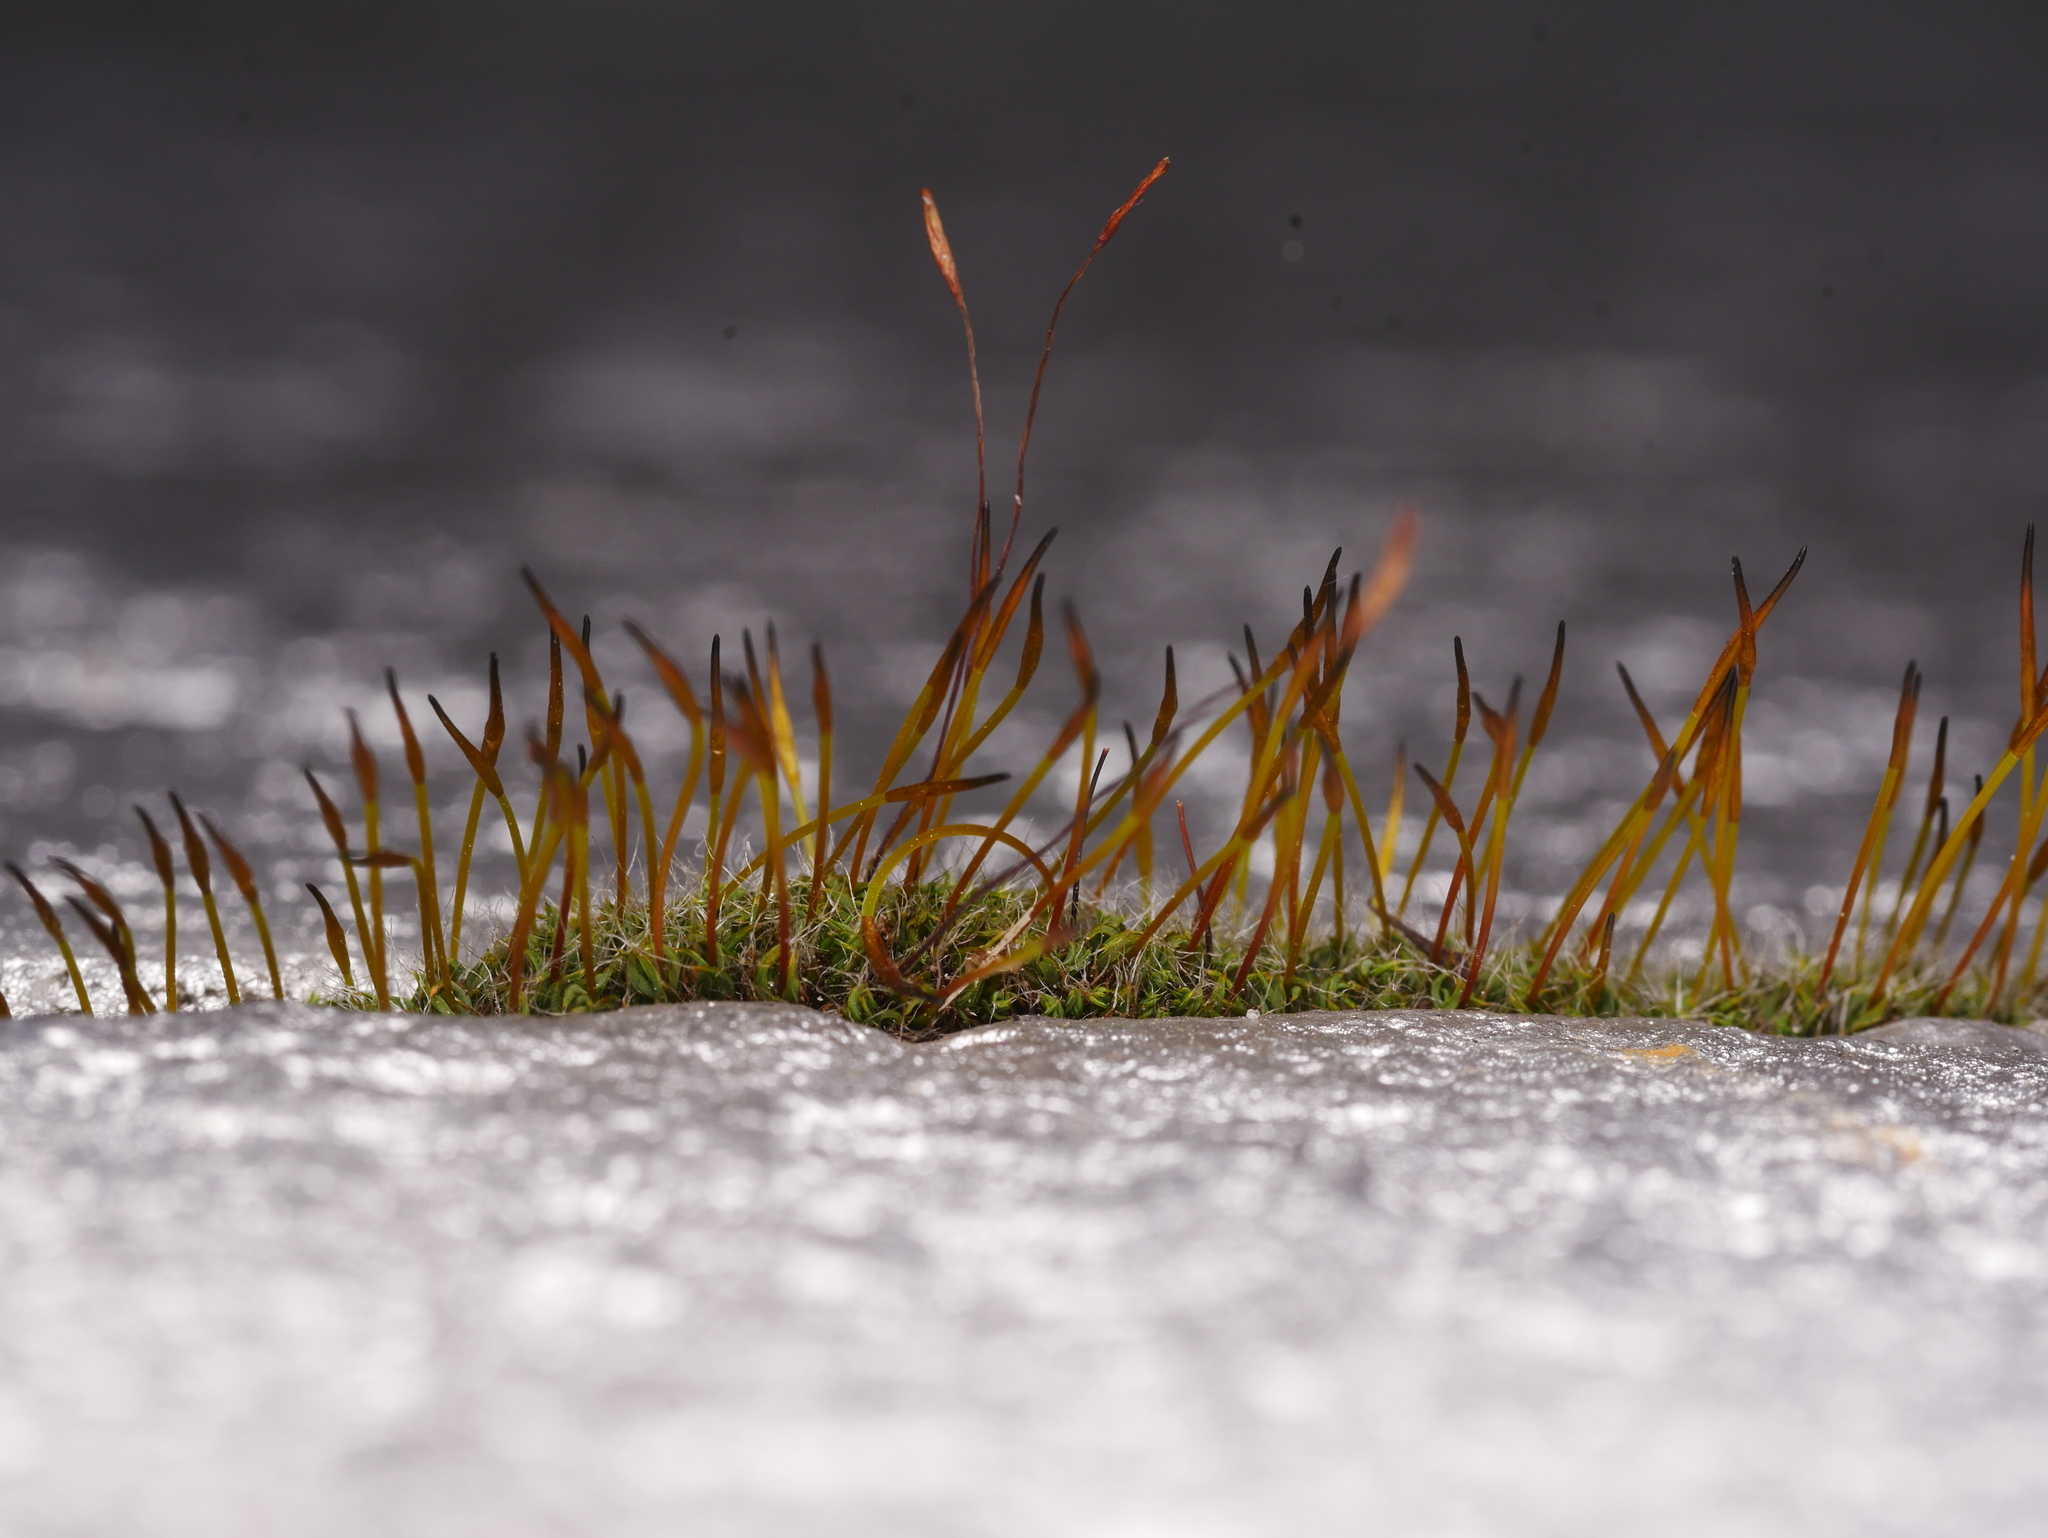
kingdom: Plantae
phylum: Bryophyta
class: Bryopsida
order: Pottiales
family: Pottiaceae
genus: Tortula
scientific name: Tortula muralis
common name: Wall screw-moss
